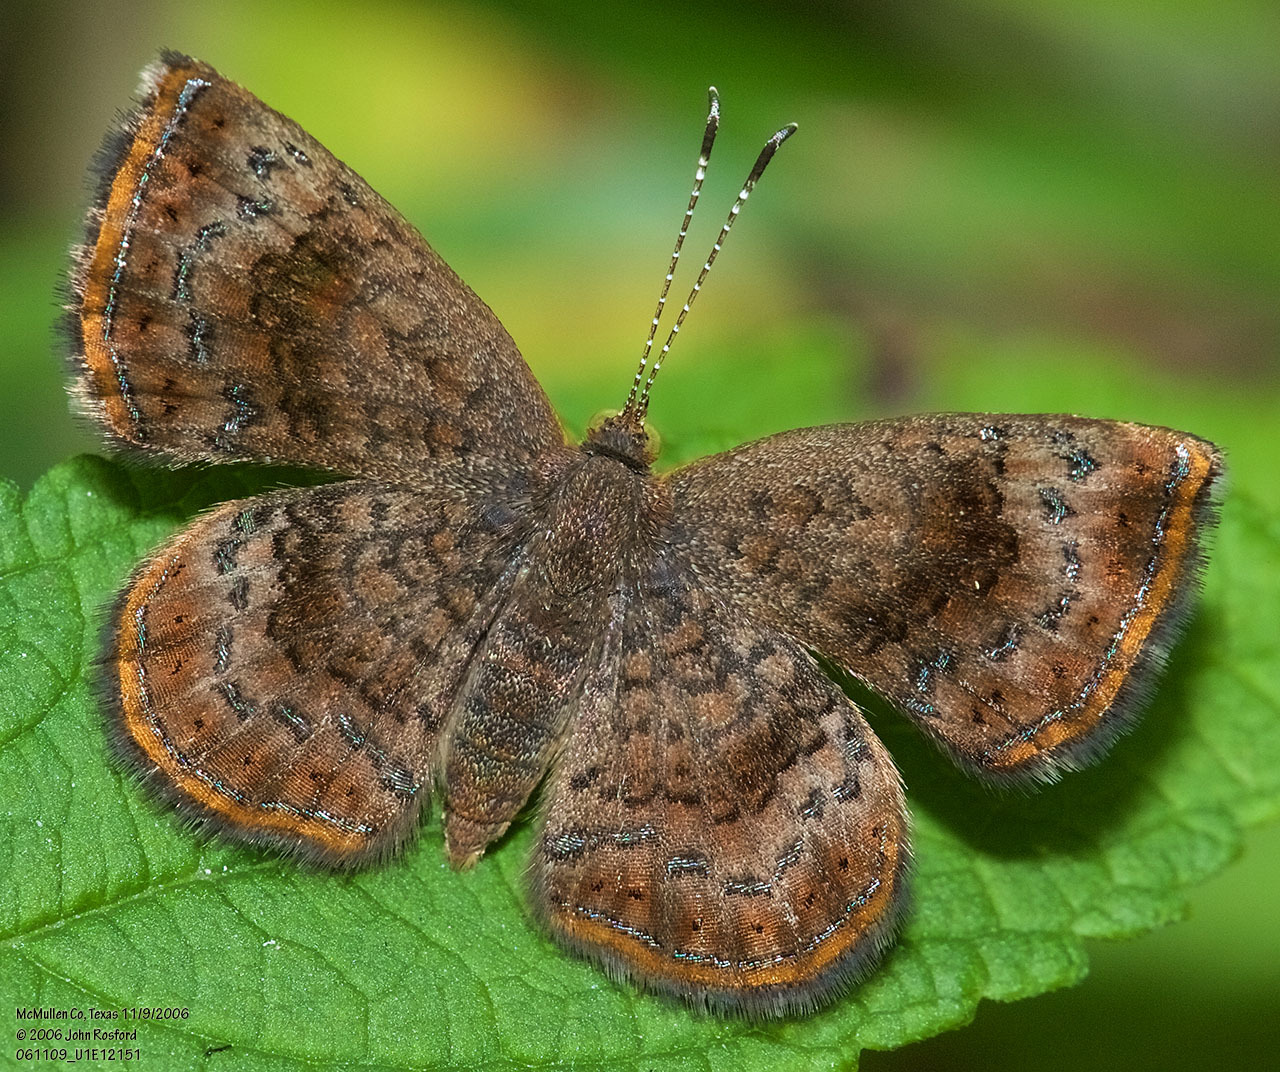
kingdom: Animalia
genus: Calephelis
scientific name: Calephelis perditalis
